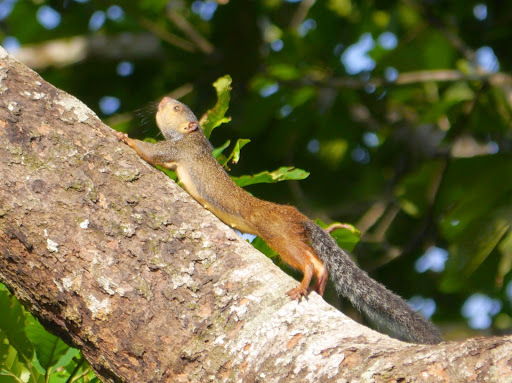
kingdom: Animalia
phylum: Chordata
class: Mammalia
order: Rodentia
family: Sciuridae
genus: Protoxerus
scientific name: Protoxerus stangeri
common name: Forest giant squirrel
